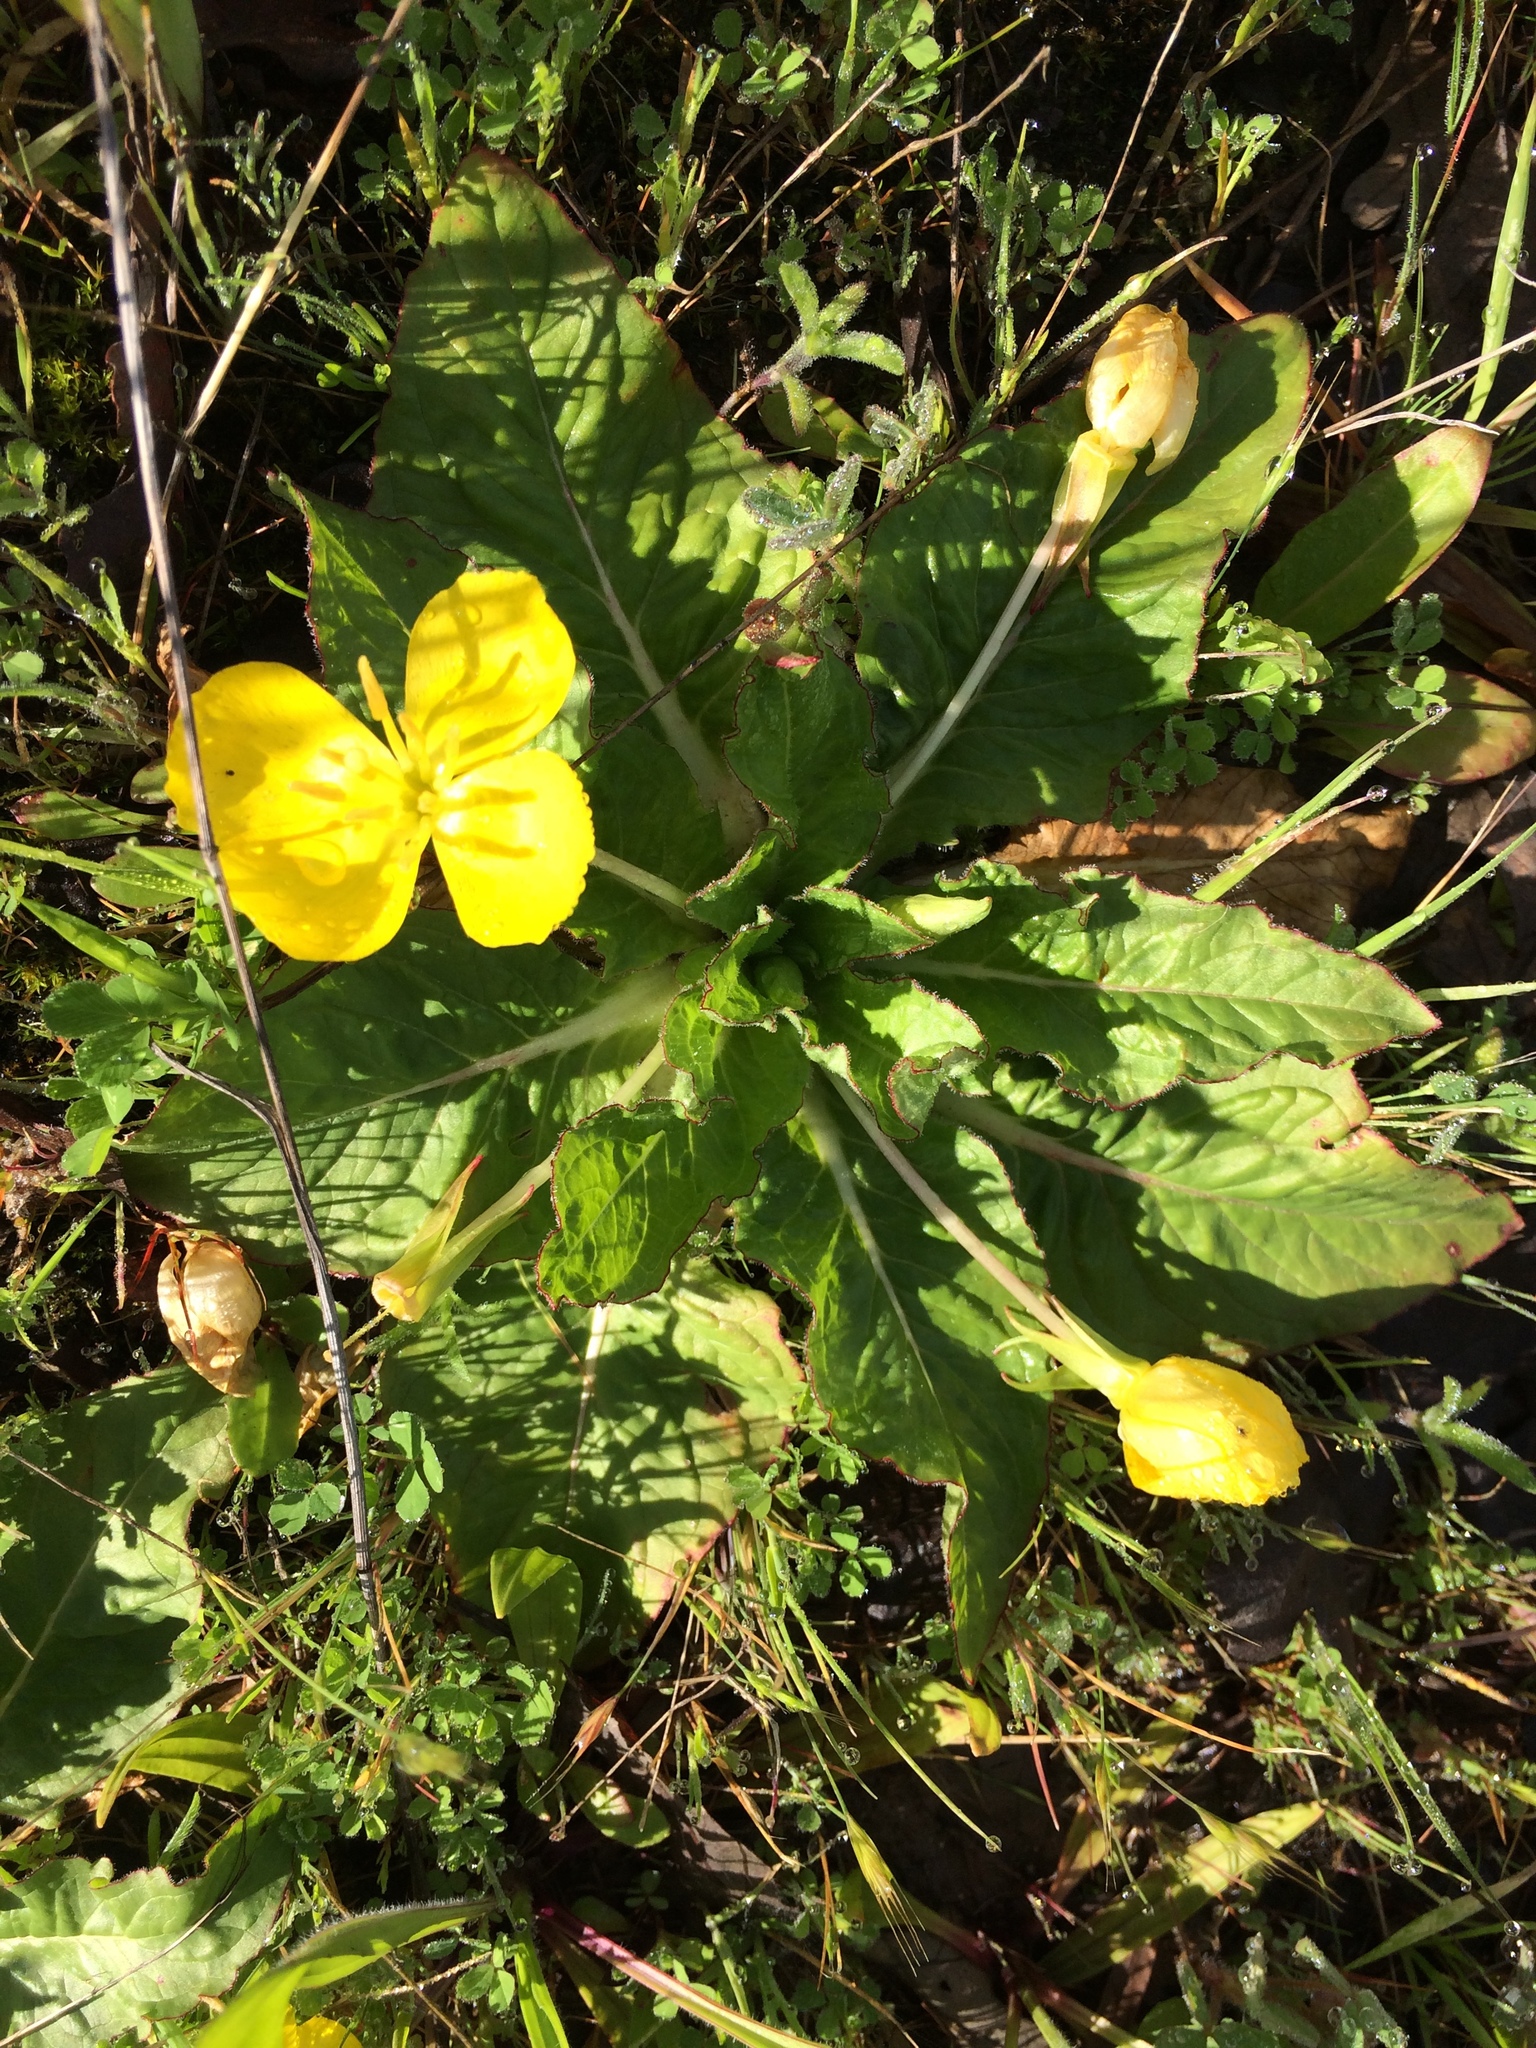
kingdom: Plantae
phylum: Tracheophyta
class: Magnoliopsida
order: Myrtales
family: Onagraceae
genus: Taraxia
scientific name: Taraxia ovata
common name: Goldeneggs
